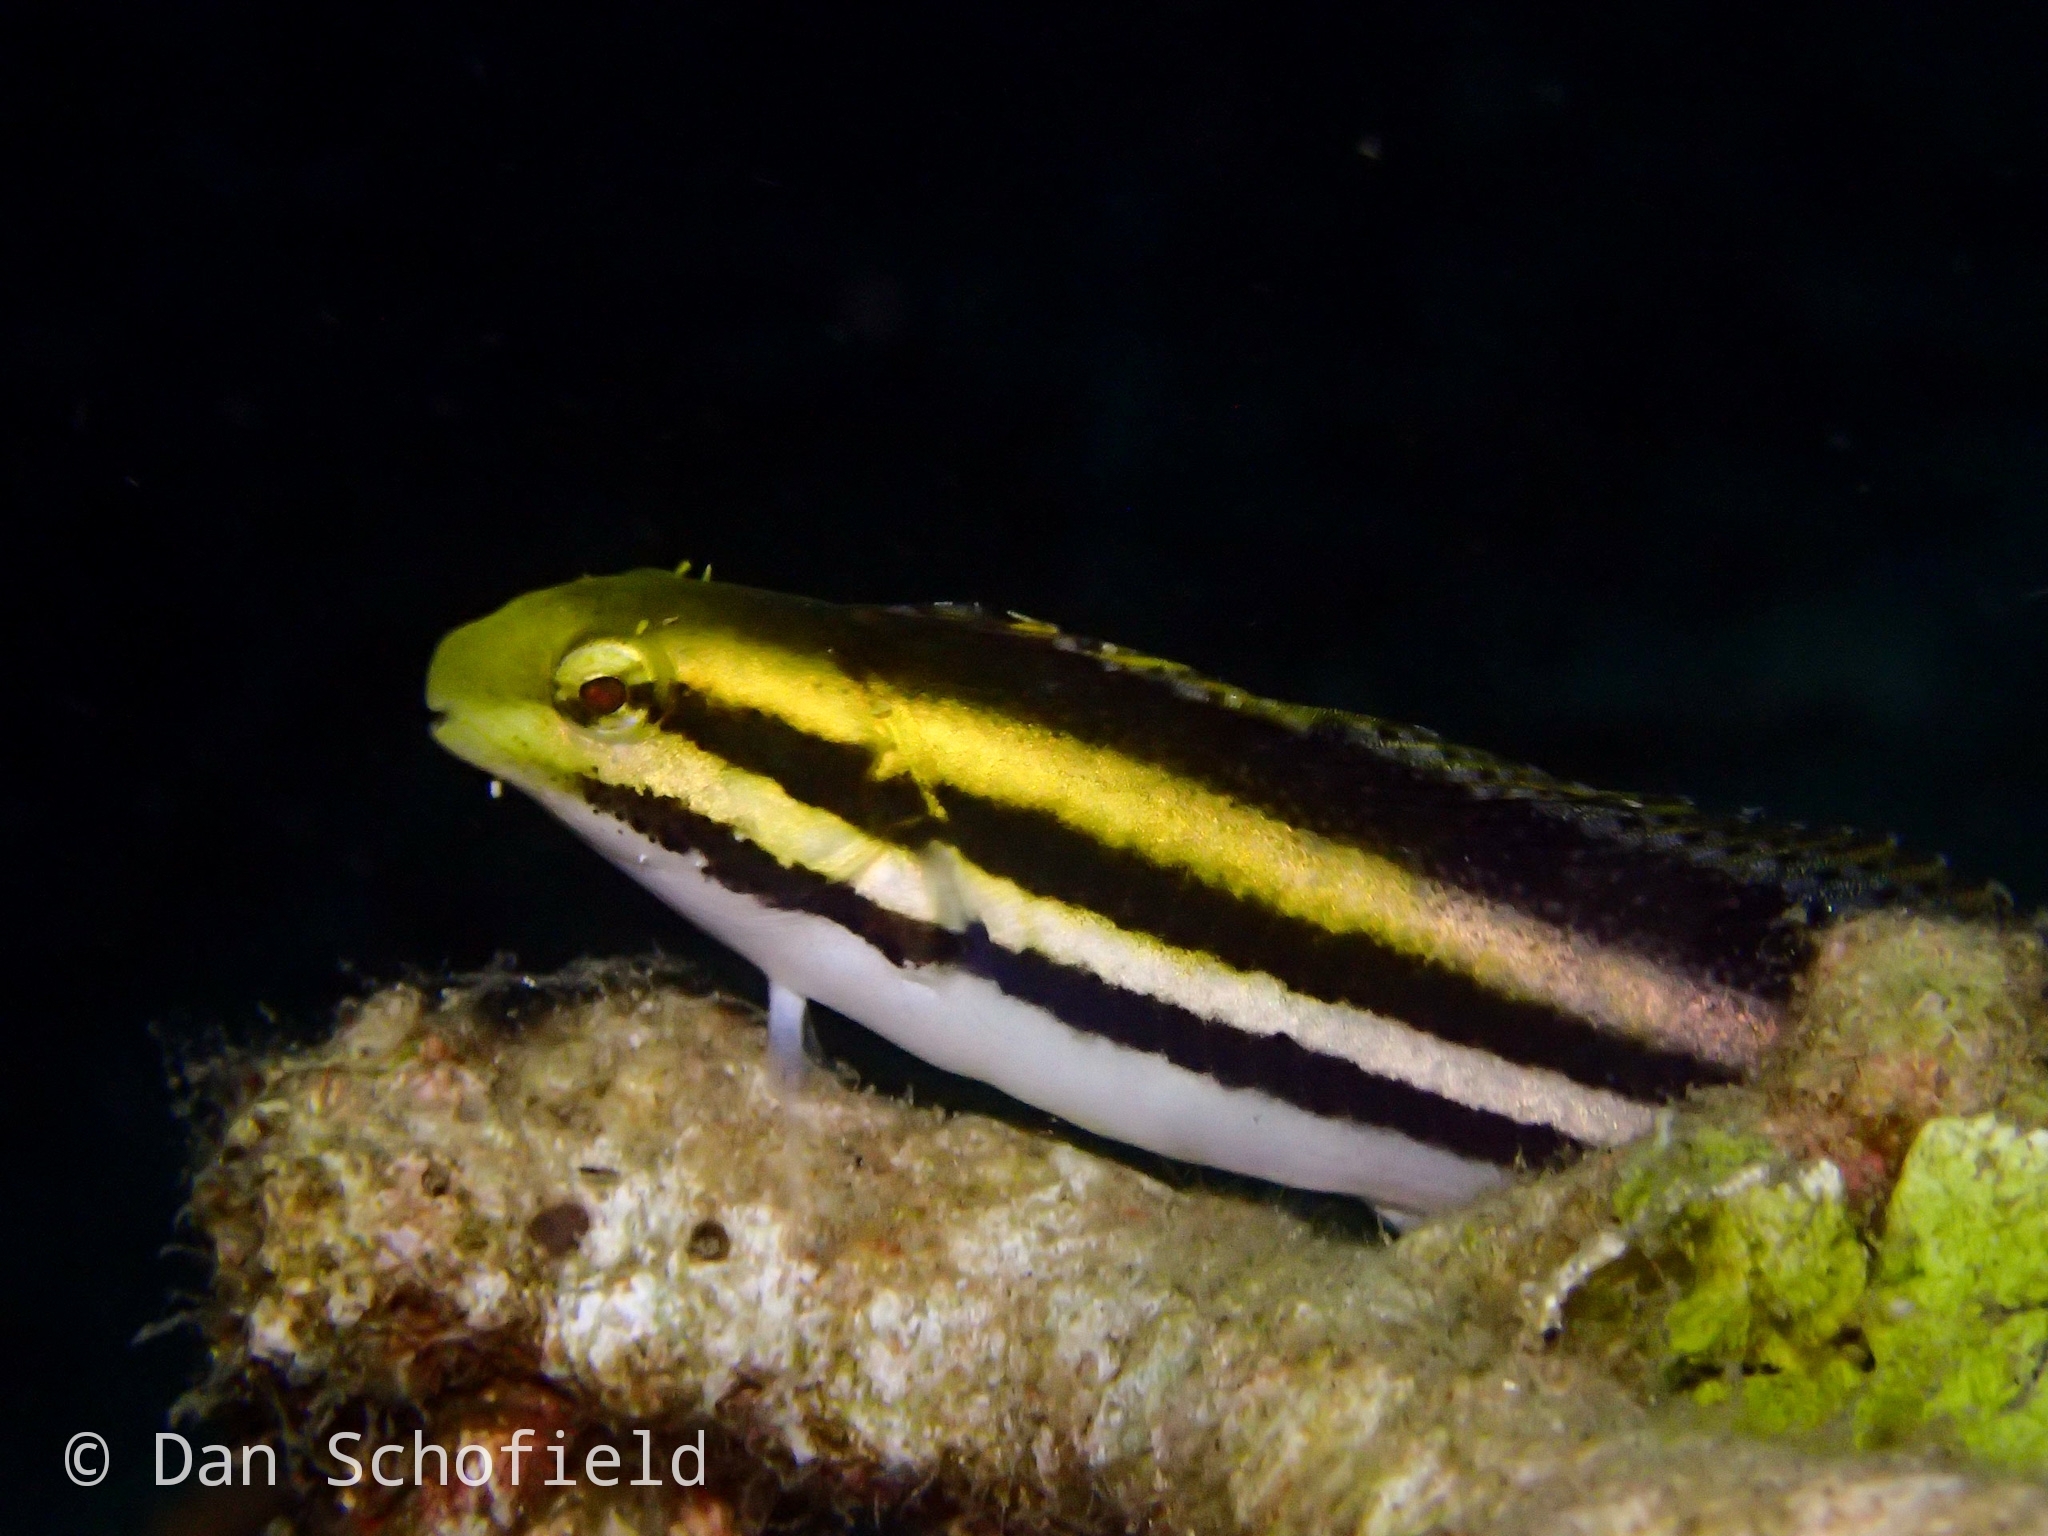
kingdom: Animalia
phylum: Chordata
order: Perciformes
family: Blenniidae
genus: Petroscirtes
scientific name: Petroscirtes breviceps
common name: Short-head sabretooth blenny
